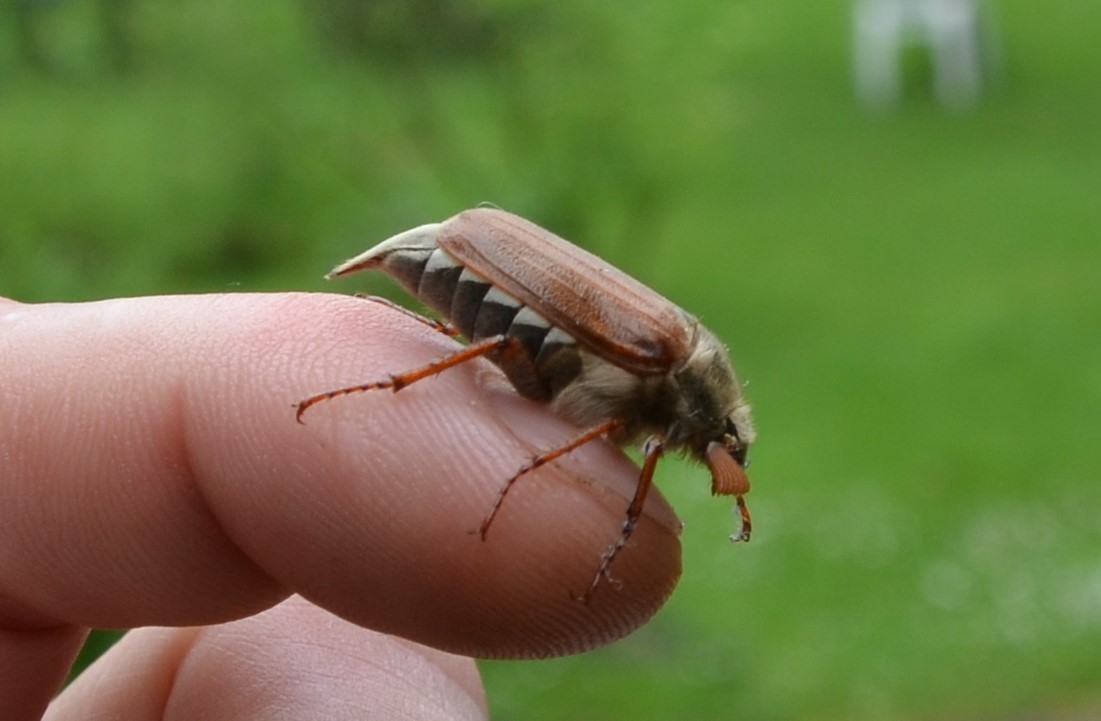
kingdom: Animalia
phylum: Arthropoda
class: Insecta
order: Coleoptera
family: Scarabaeidae
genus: Melolontha
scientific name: Melolontha melolontha
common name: Cockchafer maybeetle
